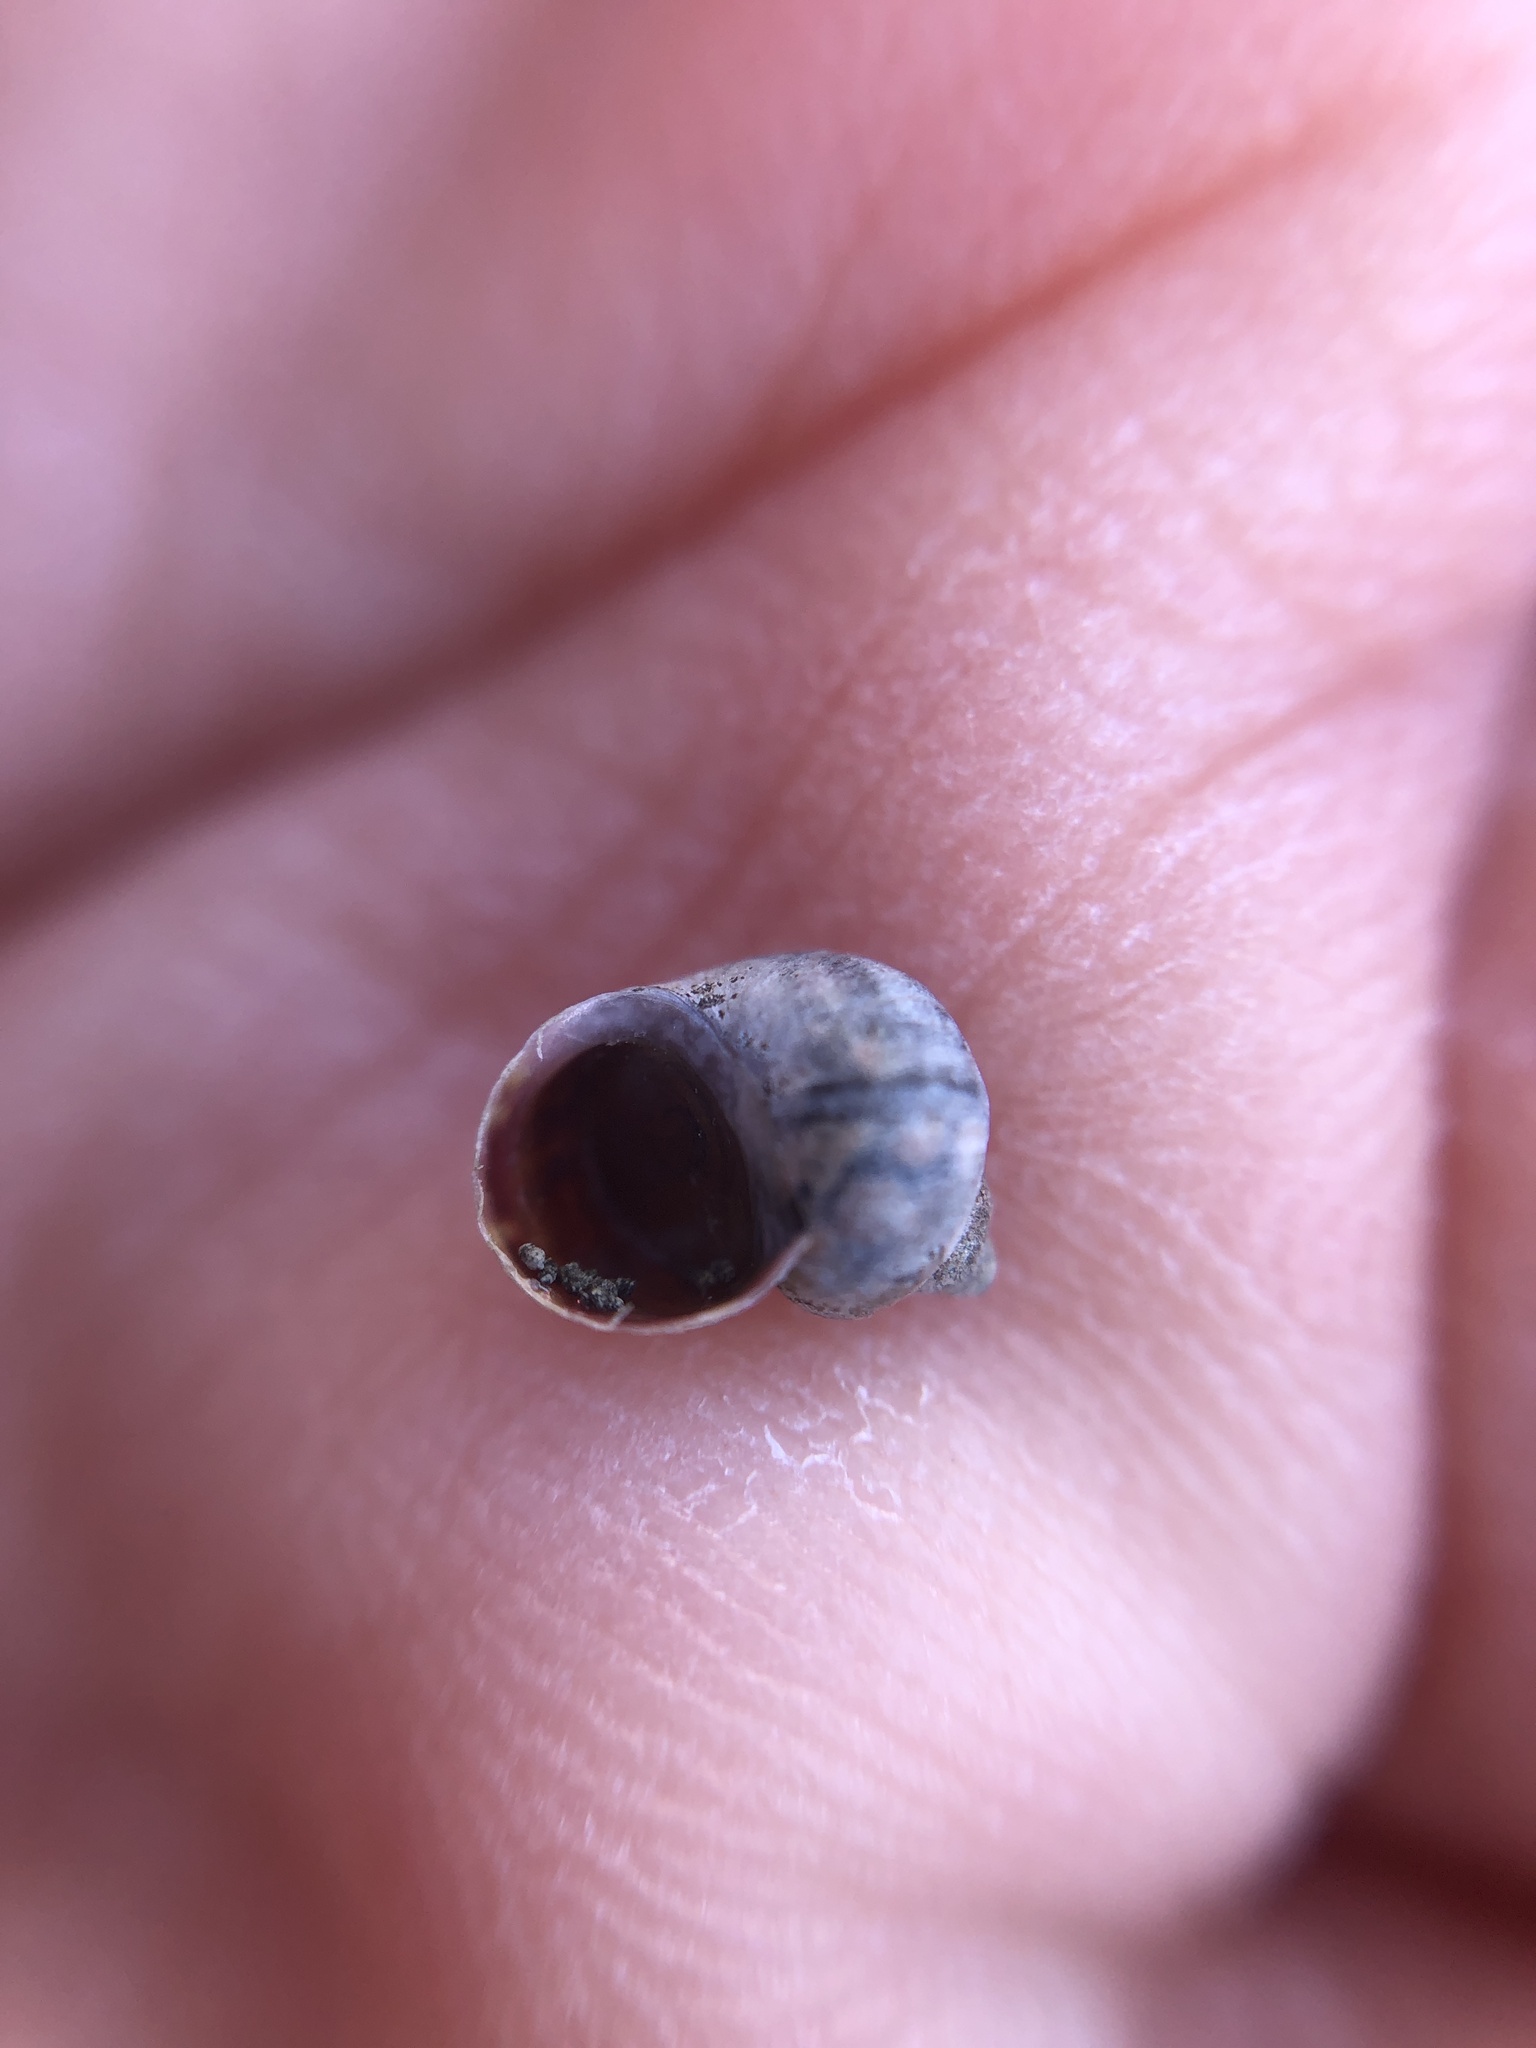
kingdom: Animalia
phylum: Mollusca
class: Gastropoda
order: Littorinimorpha
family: Littorinidae
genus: Littorina
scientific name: Littorina saxatilis
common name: Black-lined periwinkle
